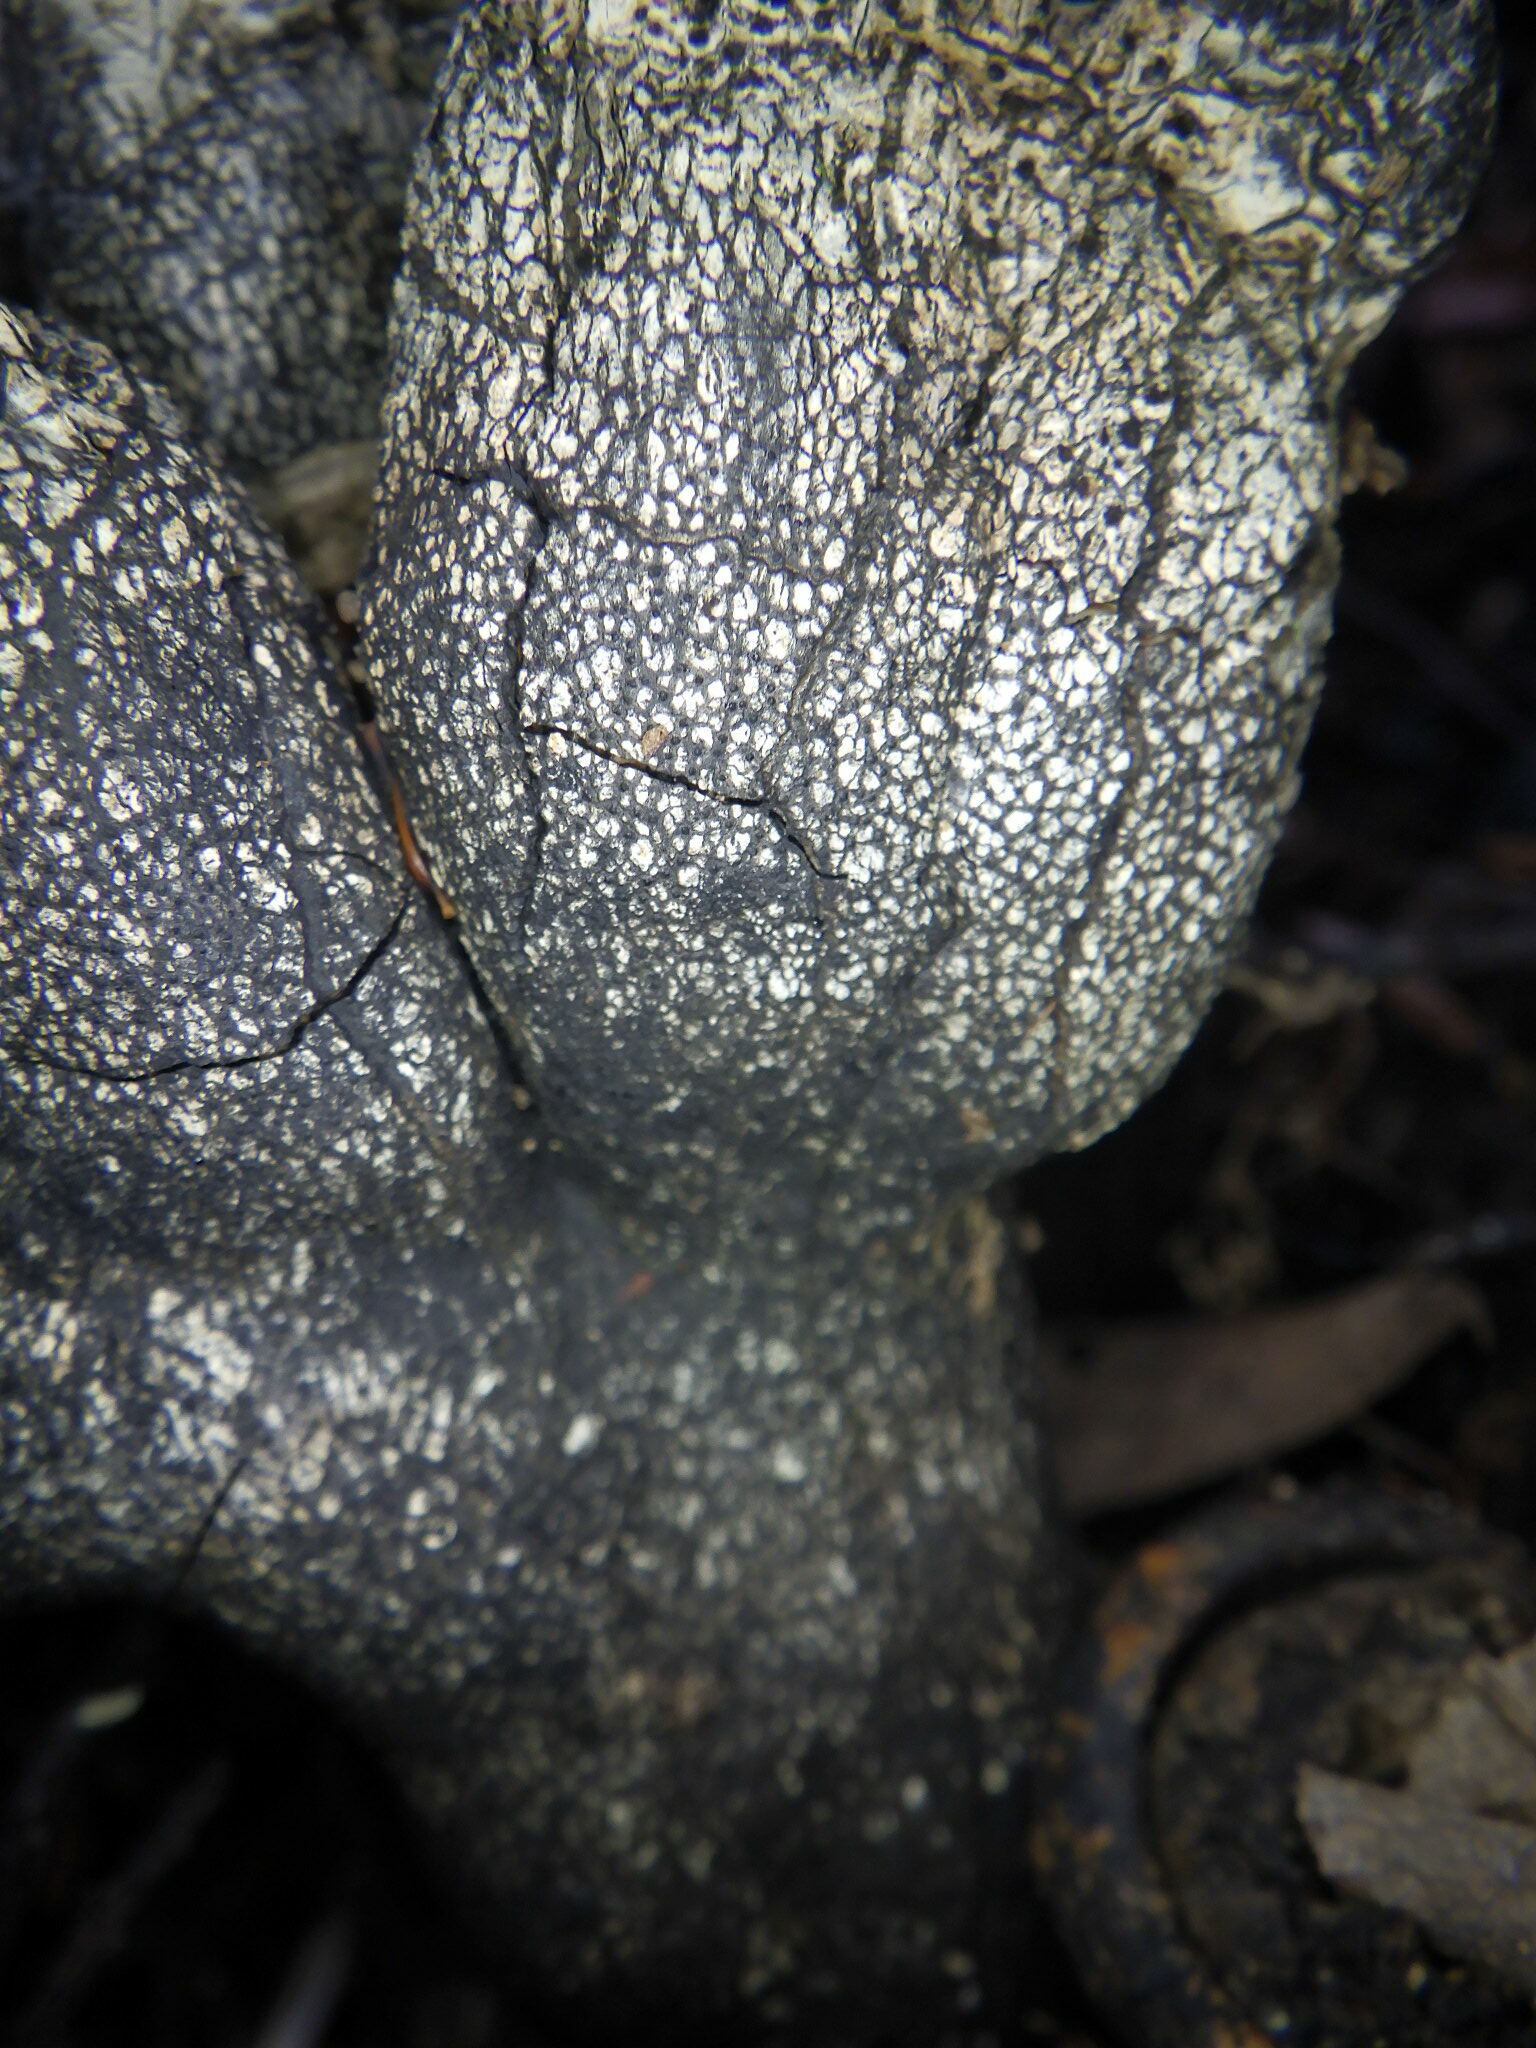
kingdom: Fungi
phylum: Ascomycota
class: Sordariomycetes
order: Xylariales
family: Xylariaceae
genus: Xylaria
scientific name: Xylaria polymorpha
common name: Dead man's fingers
